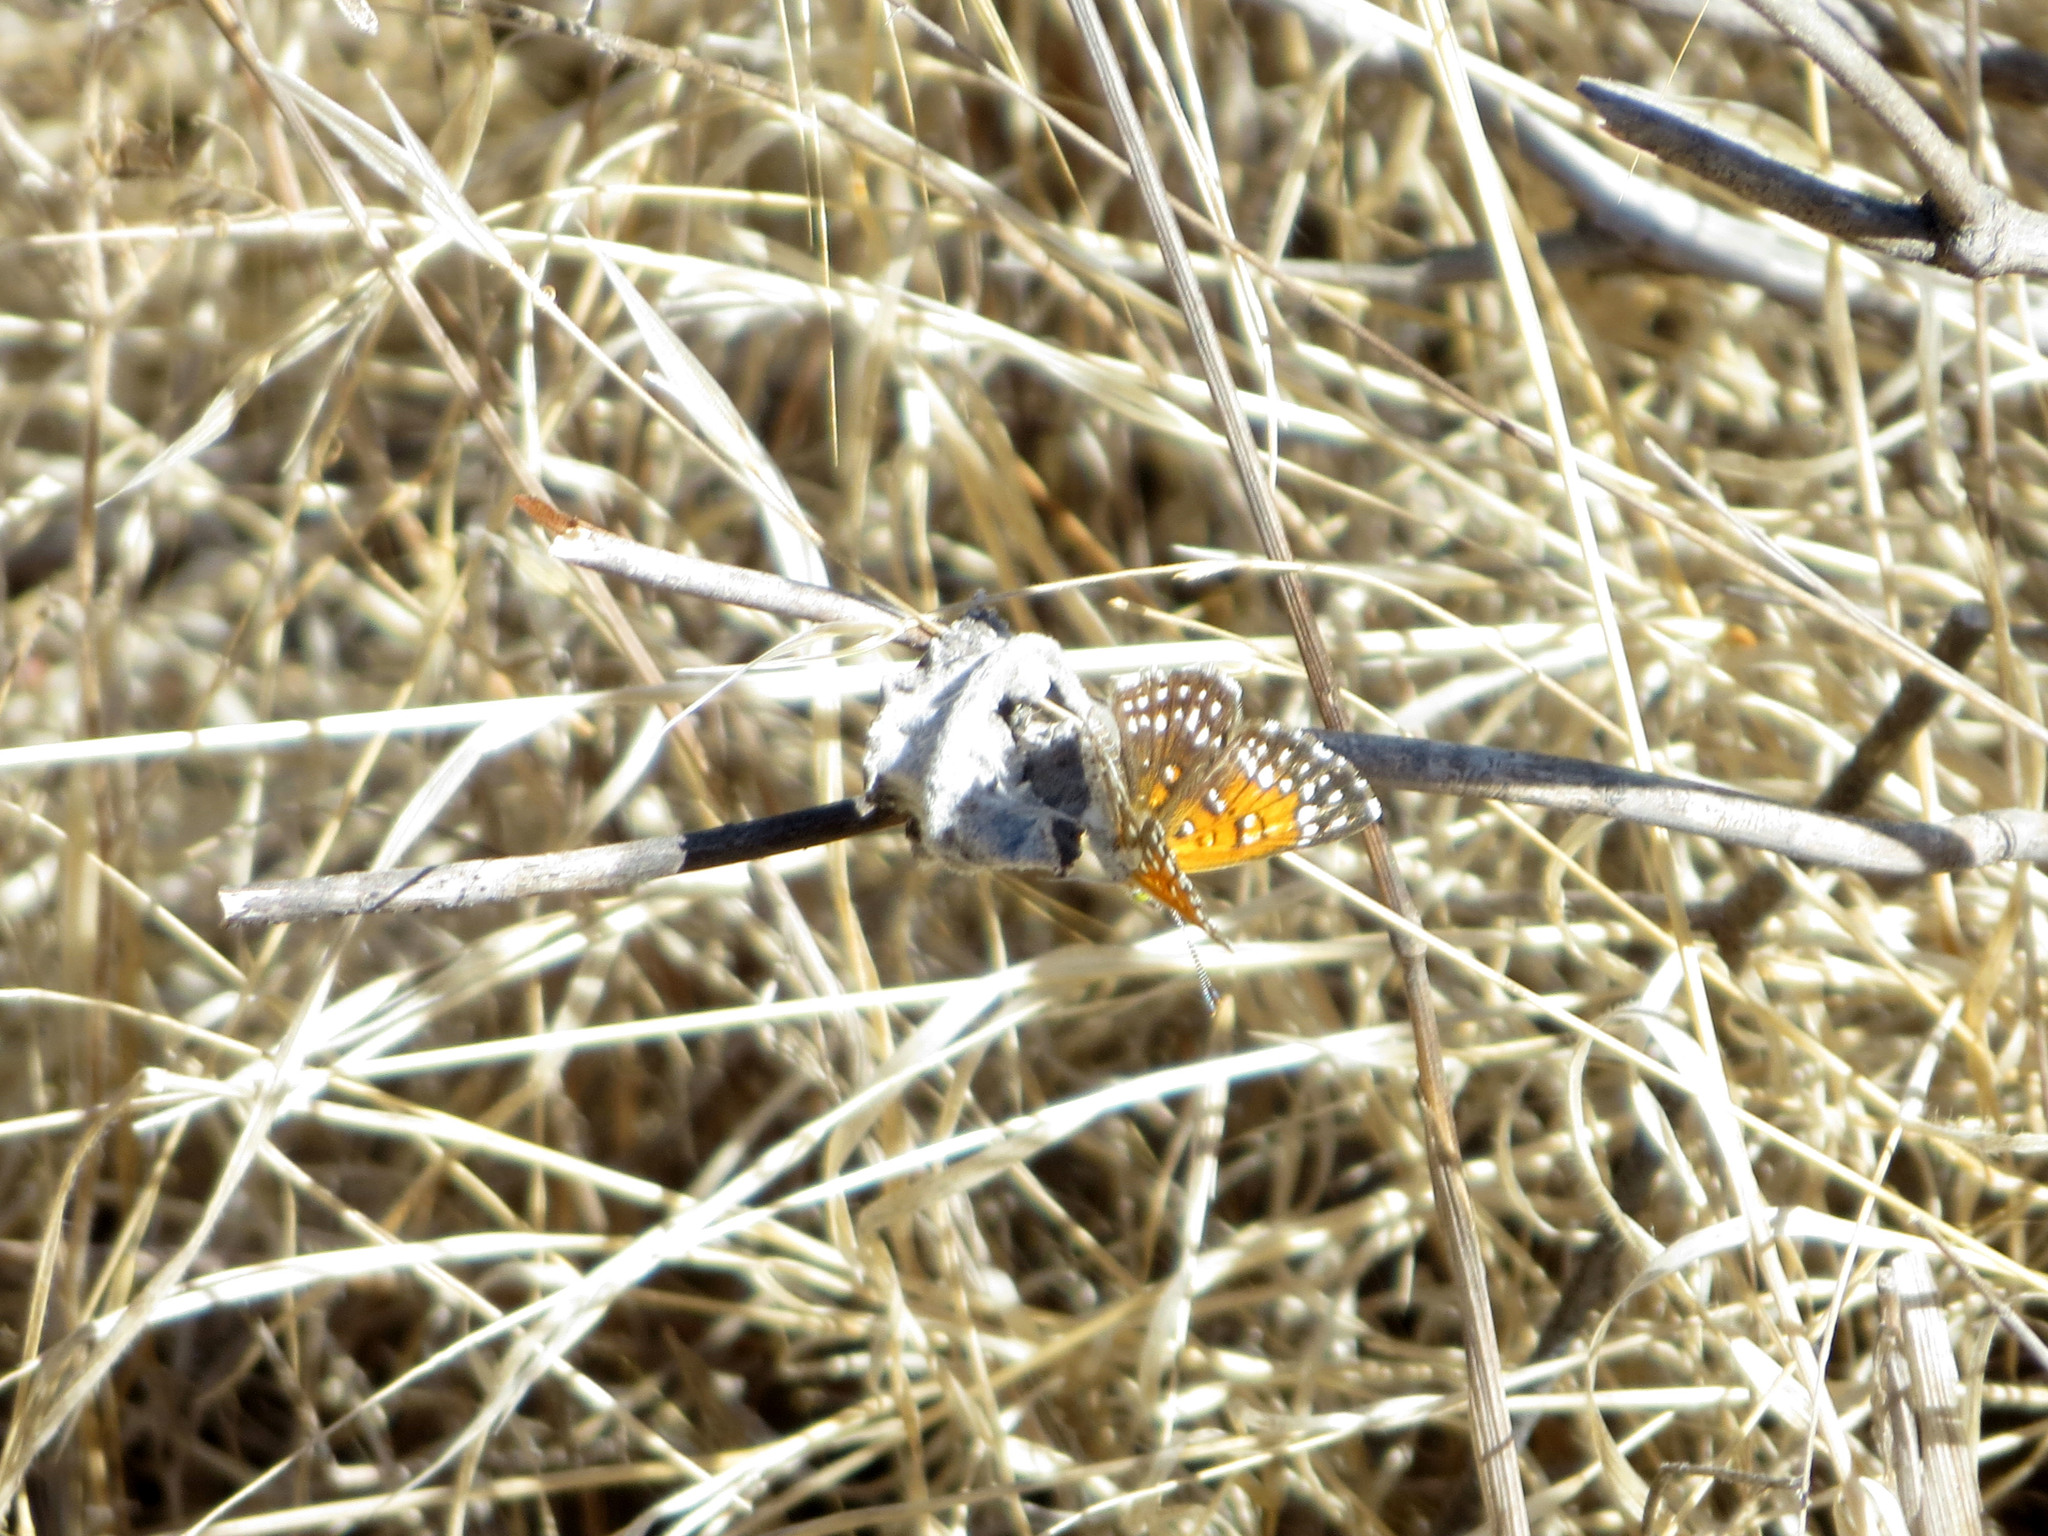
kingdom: Animalia
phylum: Arthropoda
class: Insecta
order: Lepidoptera
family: Riodinidae
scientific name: Riodinidae
